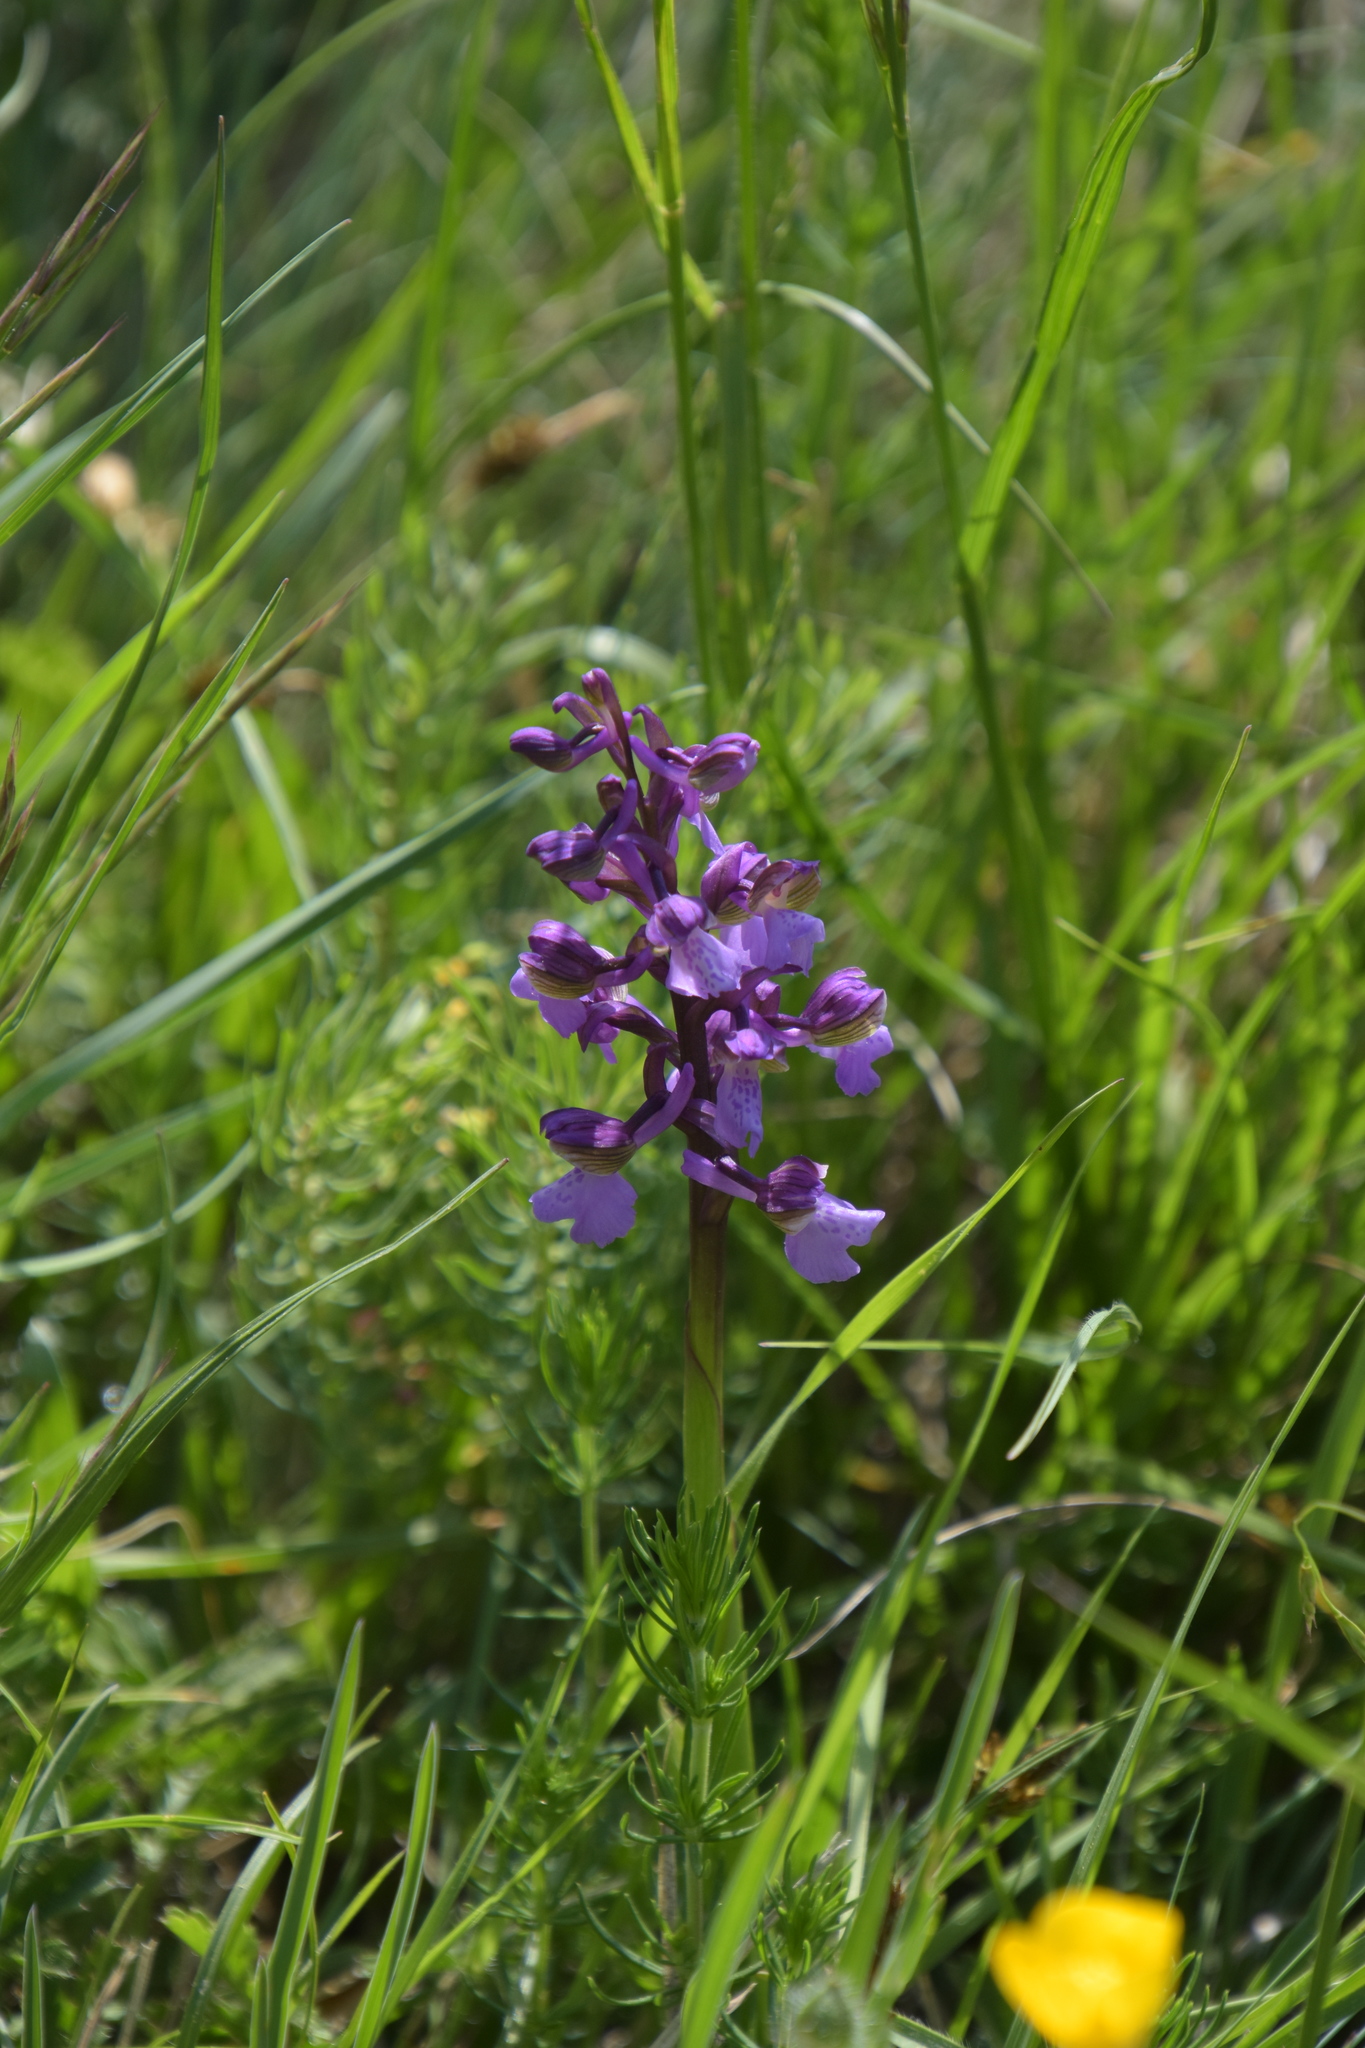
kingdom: Plantae
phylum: Tracheophyta
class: Liliopsida
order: Asparagales
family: Orchidaceae
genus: Anacamptis
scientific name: Anacamptis morio
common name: Green-winged orchid
